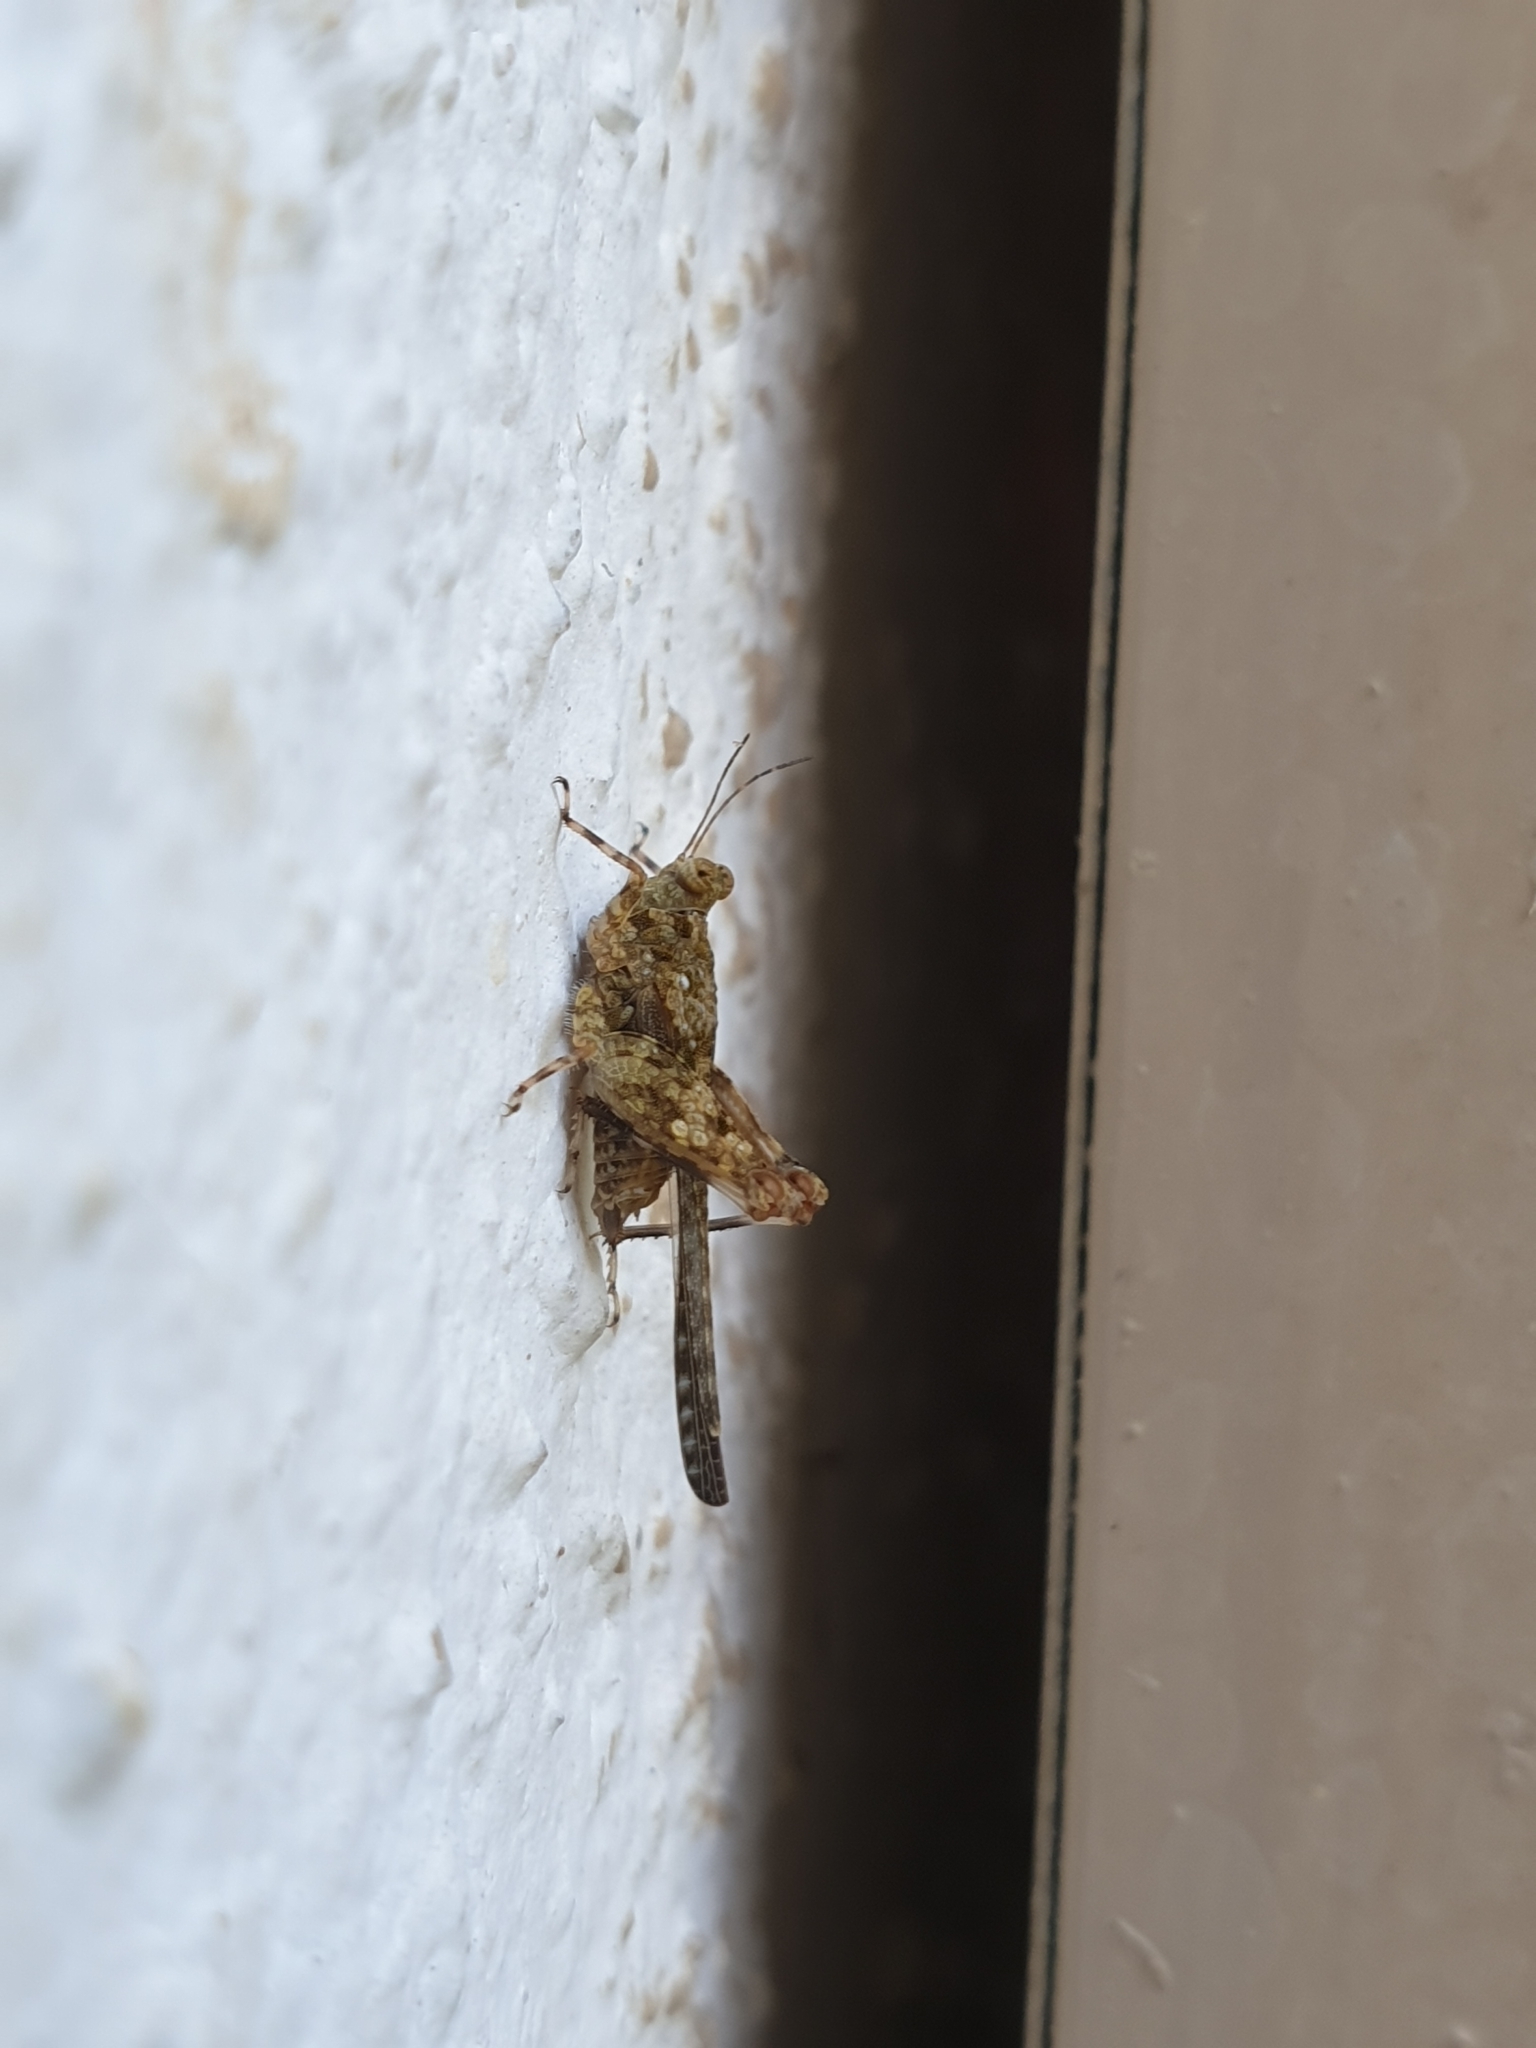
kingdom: Animalia
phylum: Arthropoda
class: Insecta
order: Orthoptera
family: Tetrigidae
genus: Euparatettix
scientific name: Euparatettix personatus
